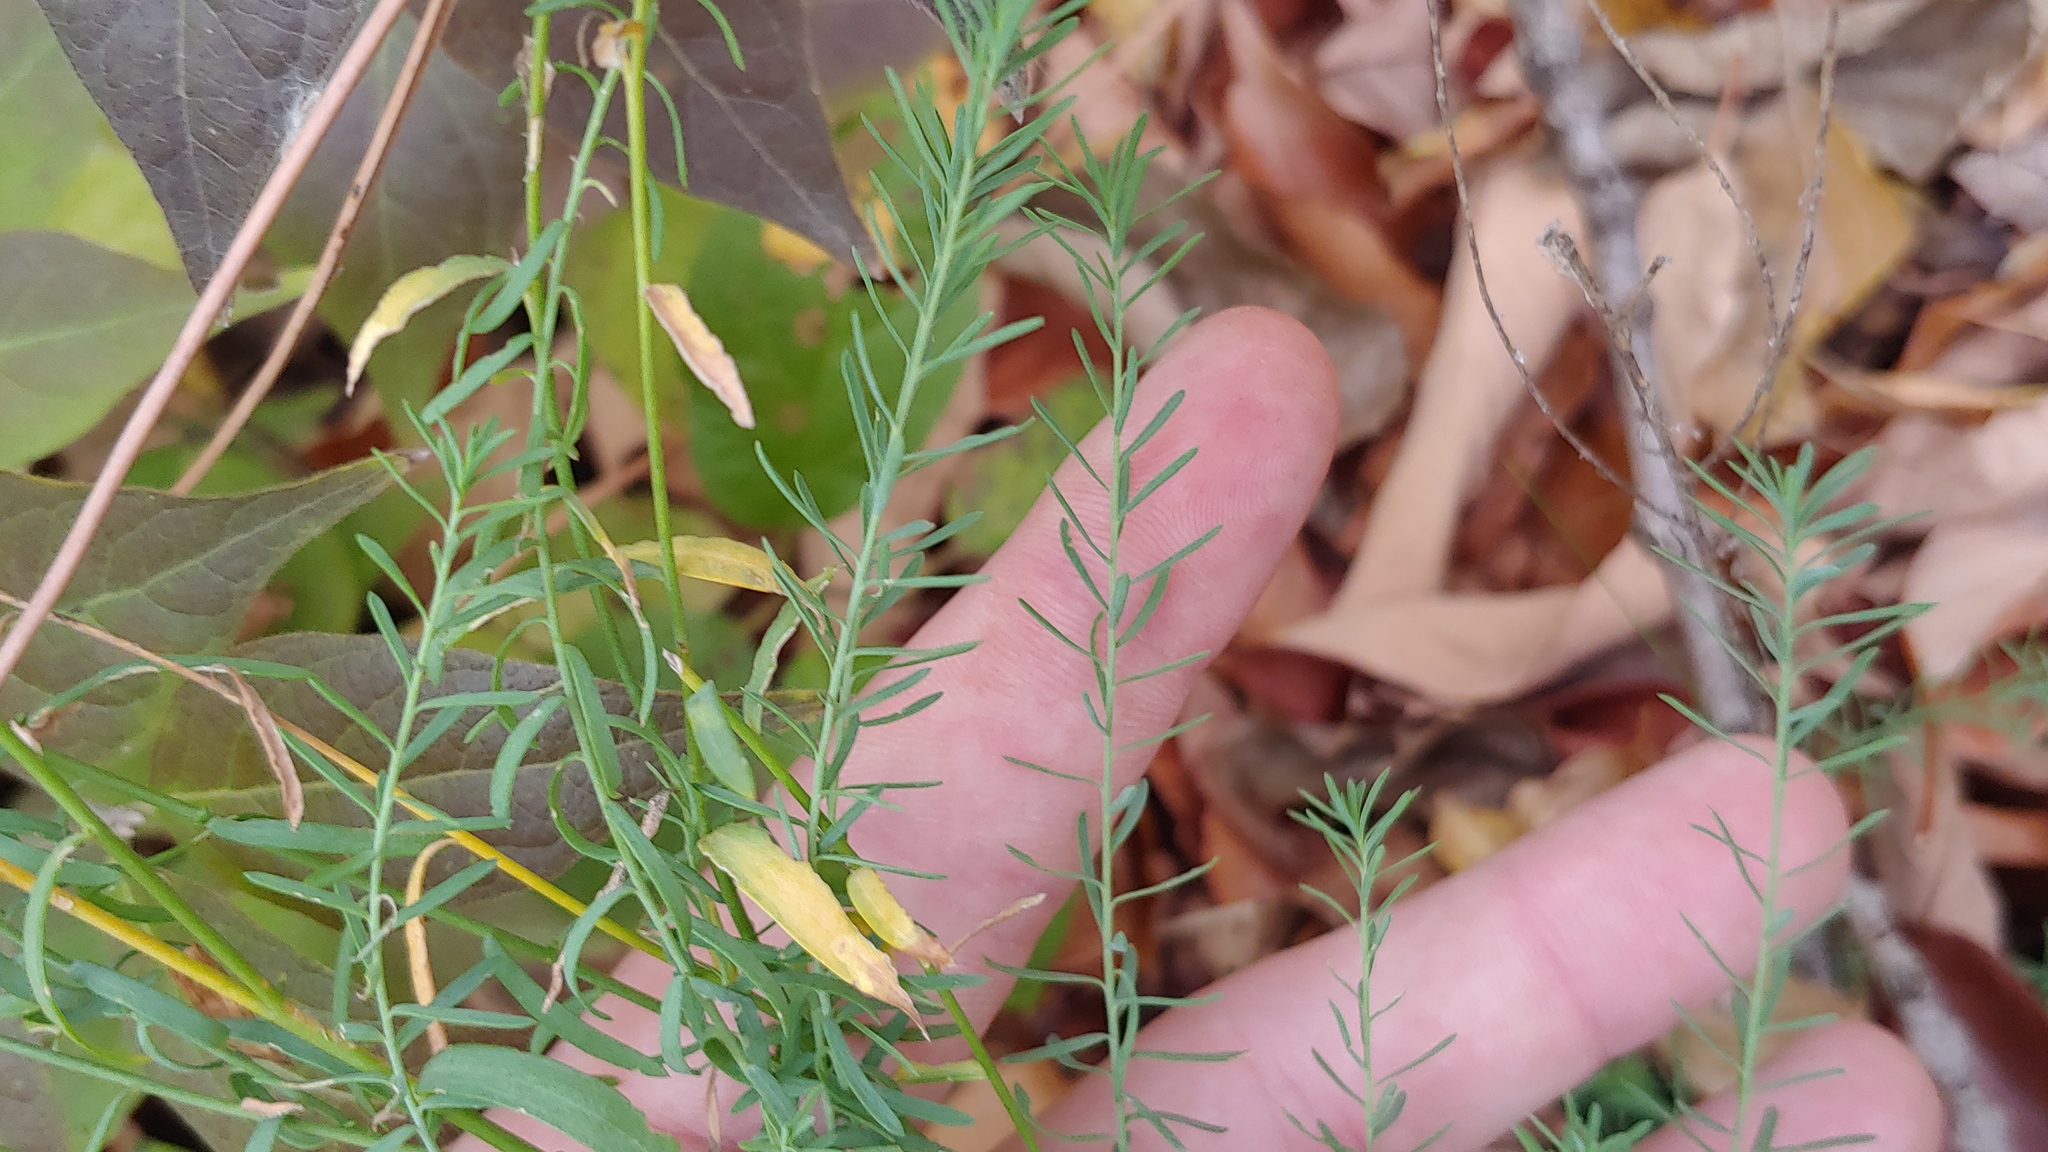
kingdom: Plantae
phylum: Tracheophyta
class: Magnoliopsida
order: Lamiales
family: Plantaginaceae
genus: Linaria
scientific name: Linaria vulgaris
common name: Butter and eggs
